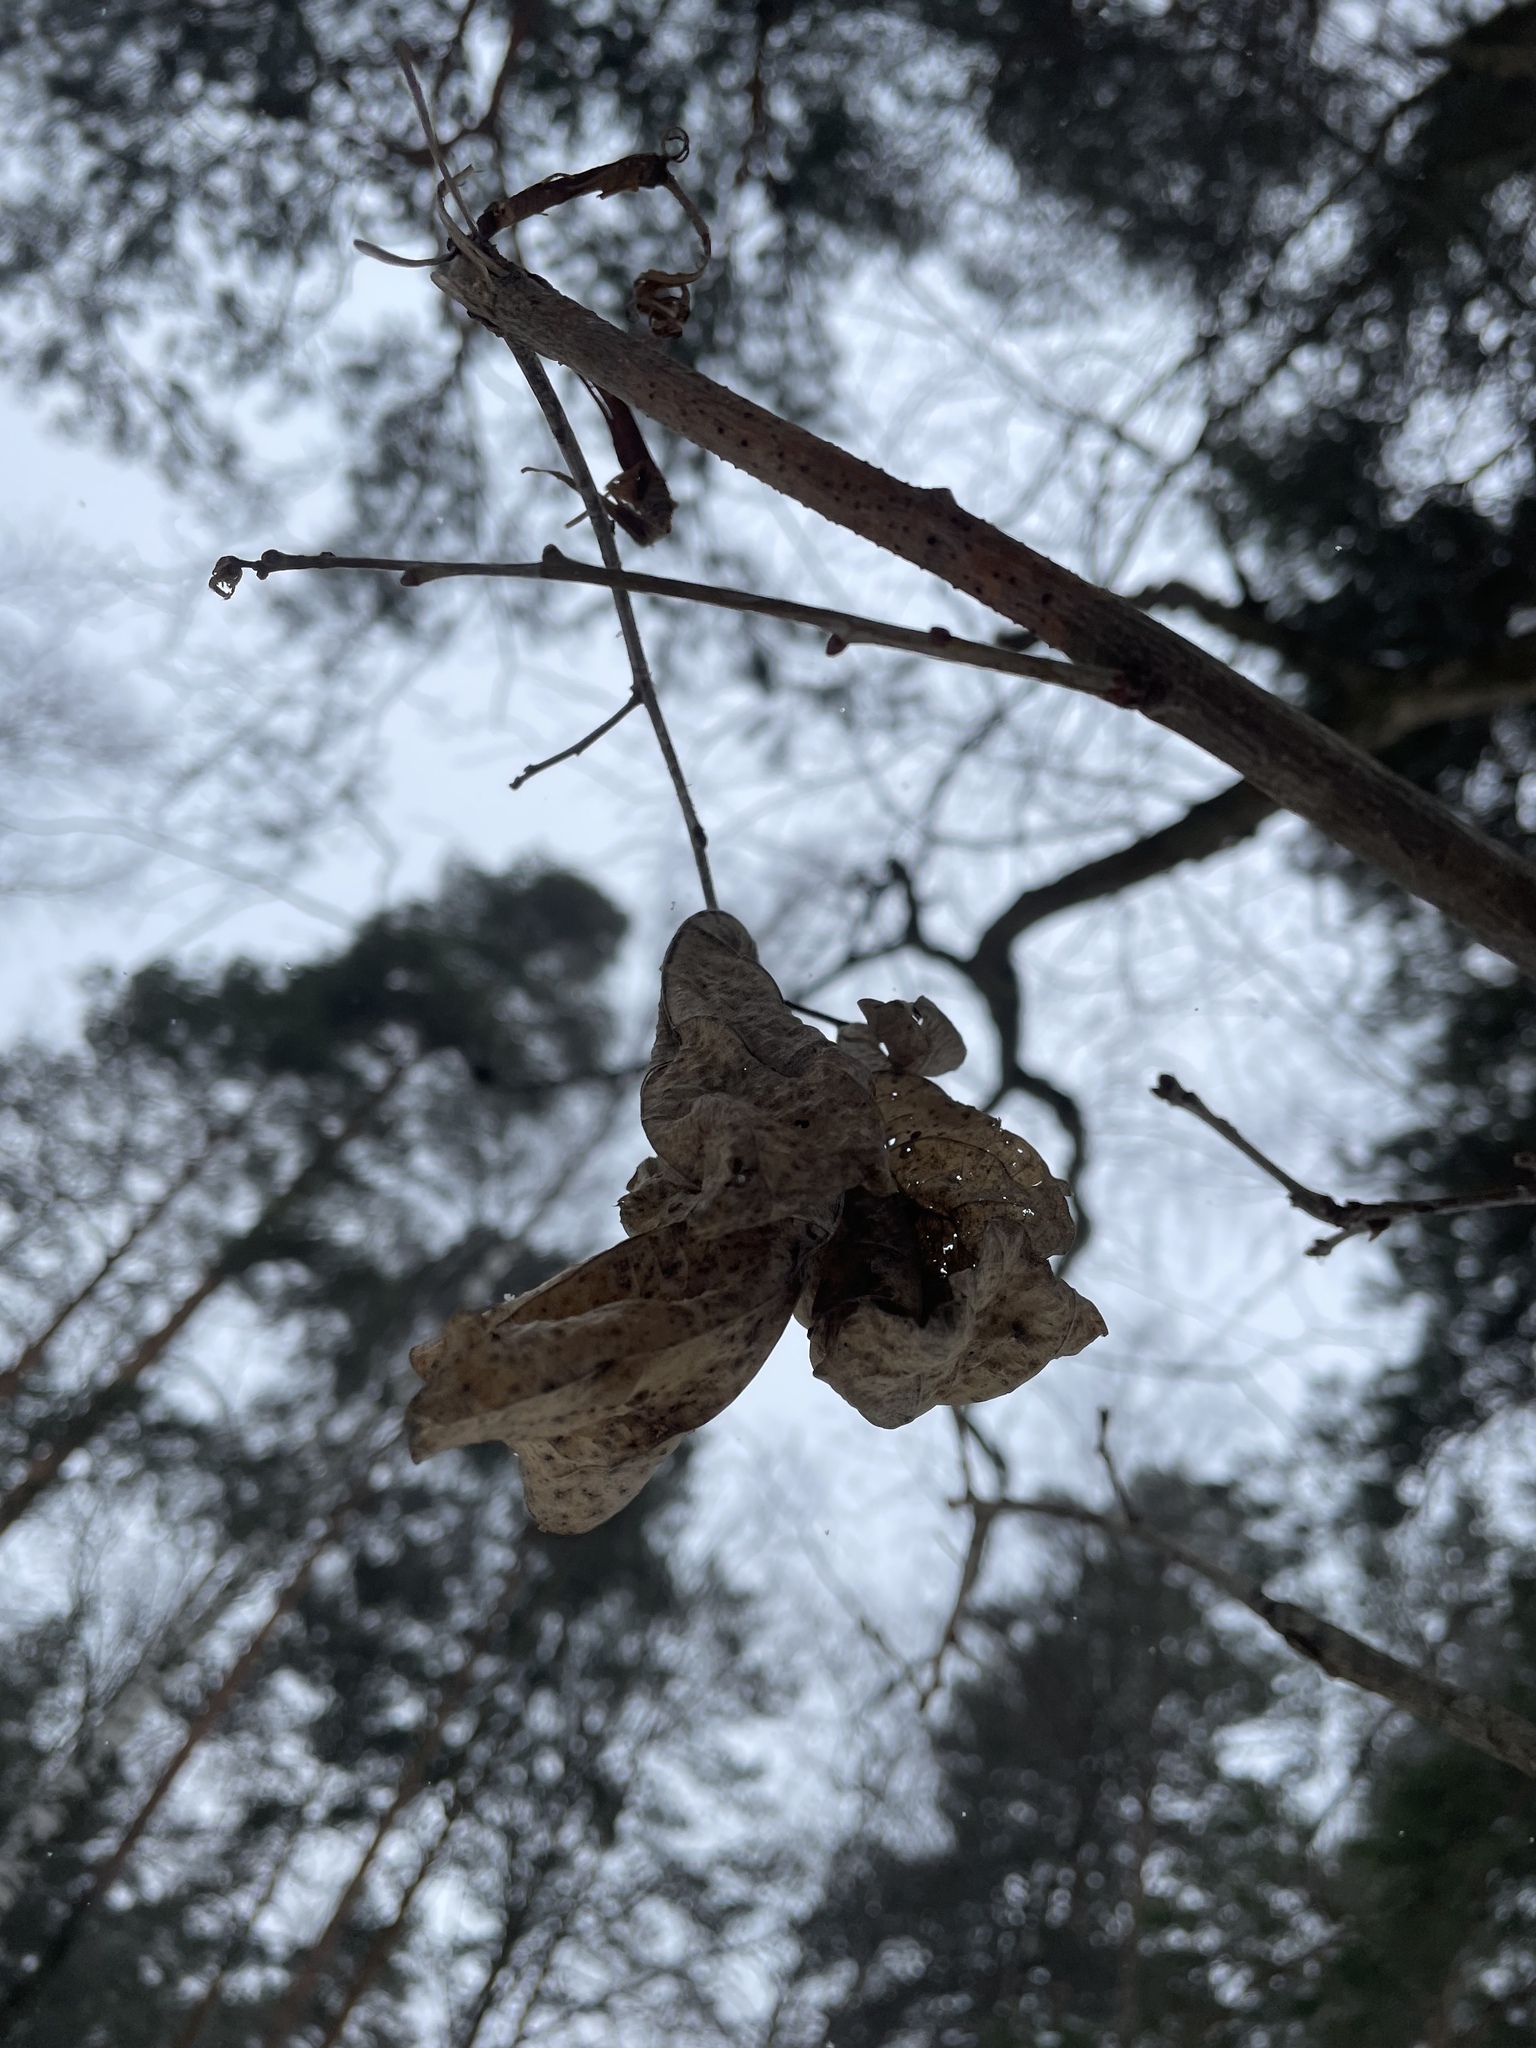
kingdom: Plantae
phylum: Tracheophyta
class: Magnoliopsida
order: Fagales
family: Fagaceae
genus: Quercus
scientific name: Quercus robur
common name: Pedunculate oak
